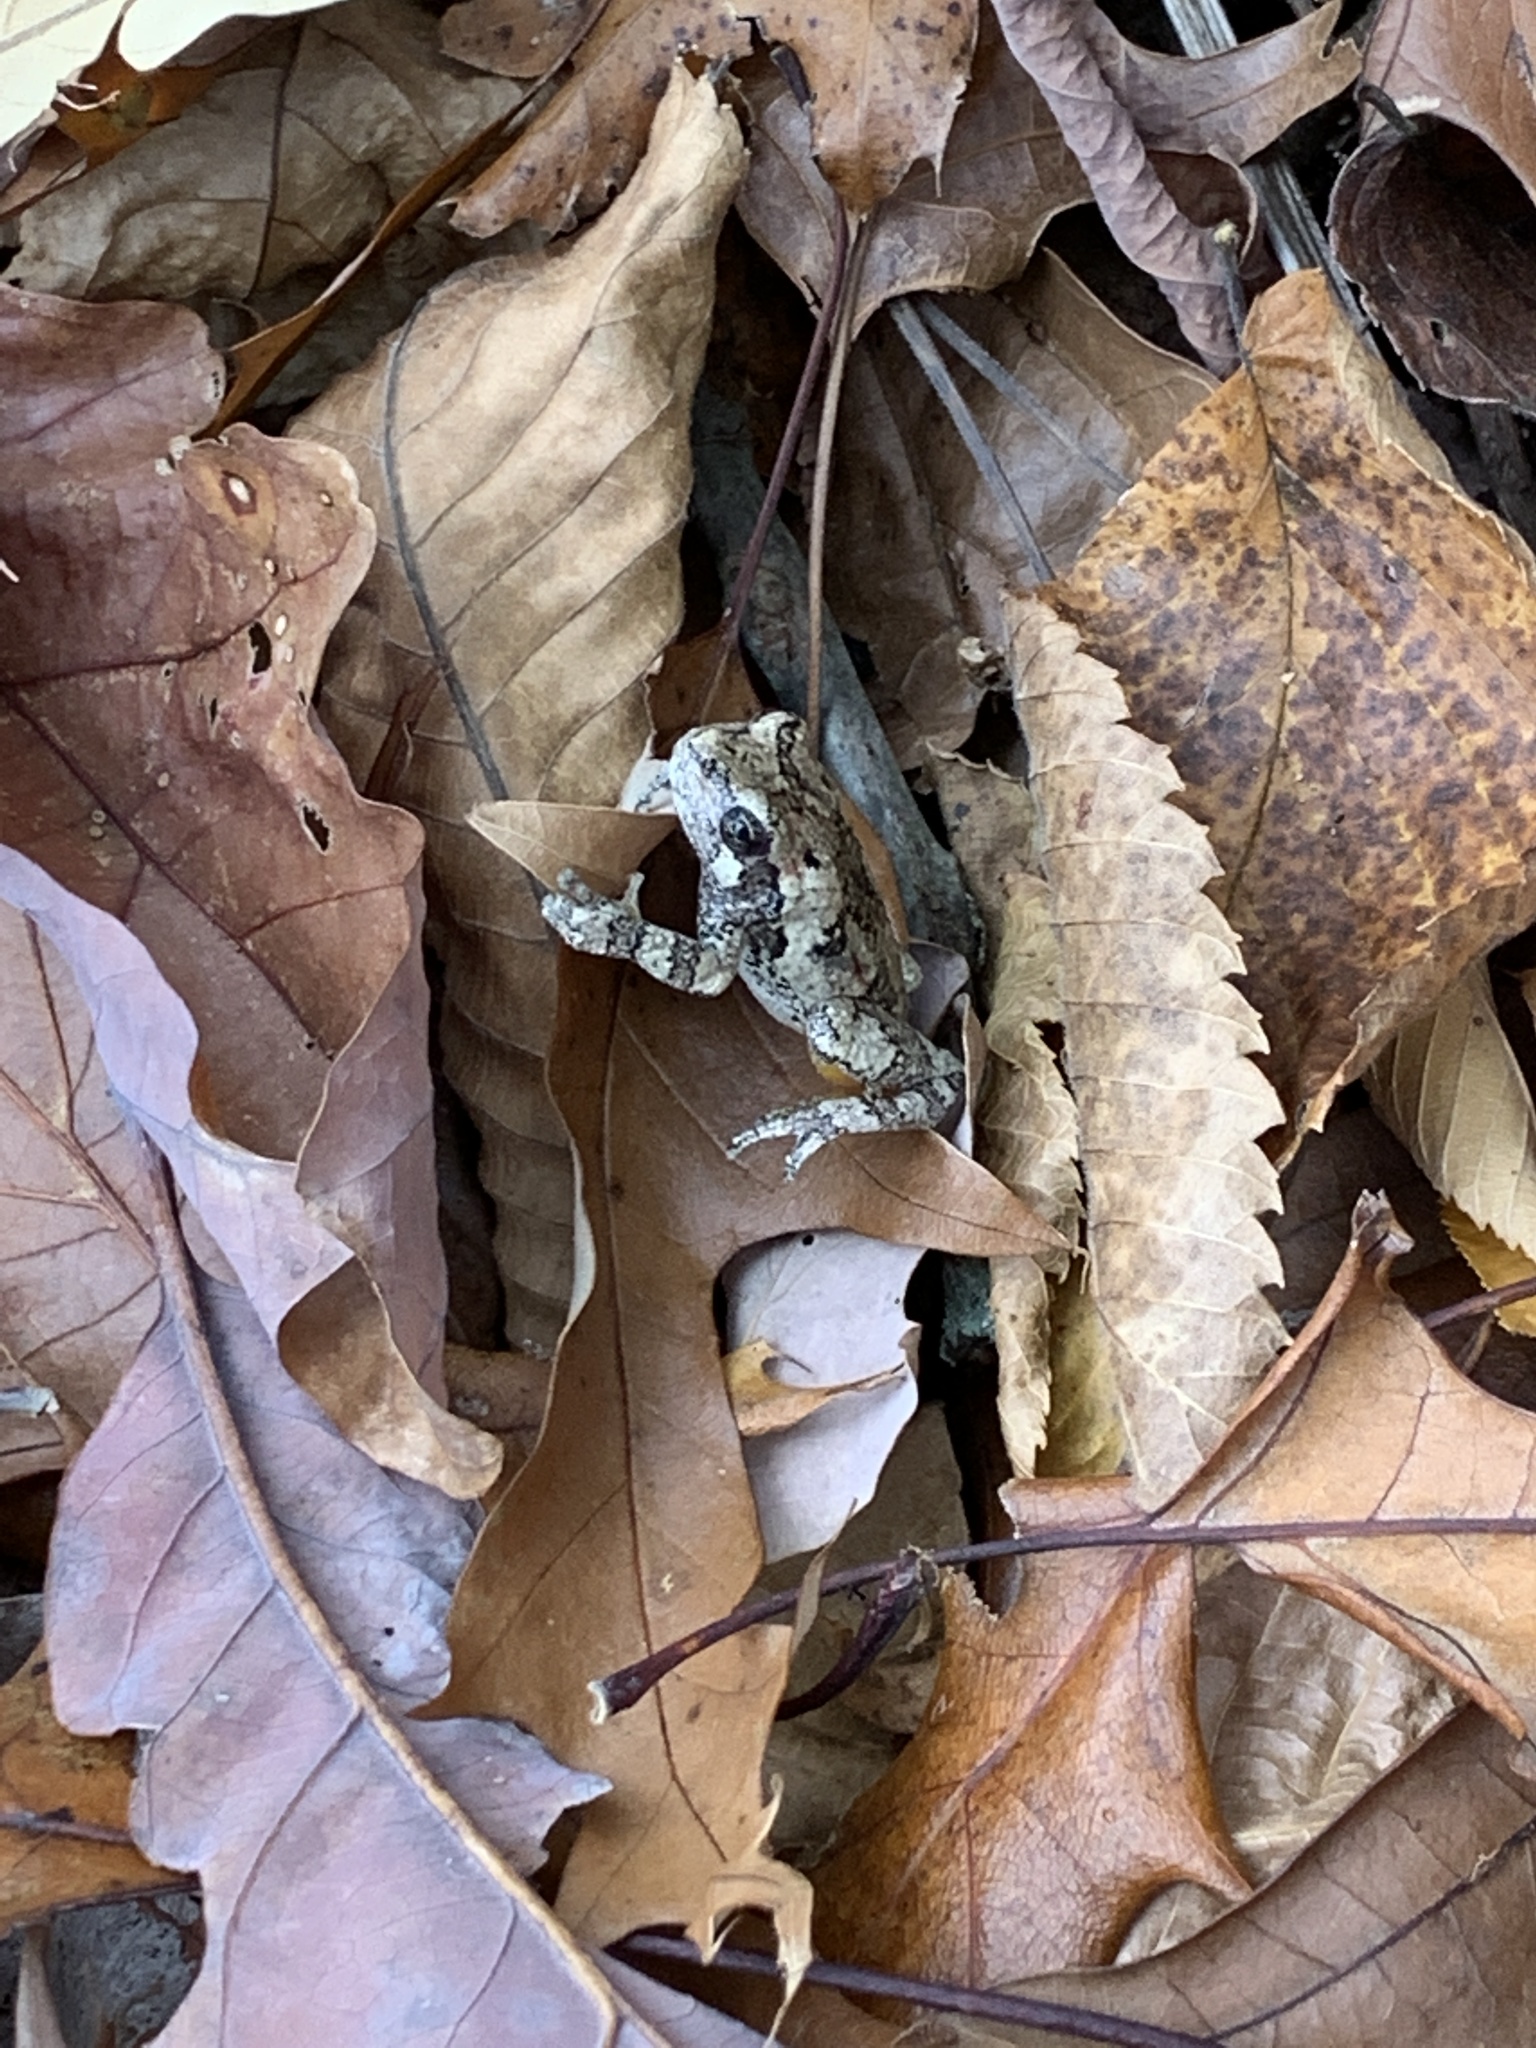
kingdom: Animalia
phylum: Chordata
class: Amphibia
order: Anura
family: Hylidae
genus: Dryophytes
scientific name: Dryophytes chrysoscelis
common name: Cope's gray treefrog
